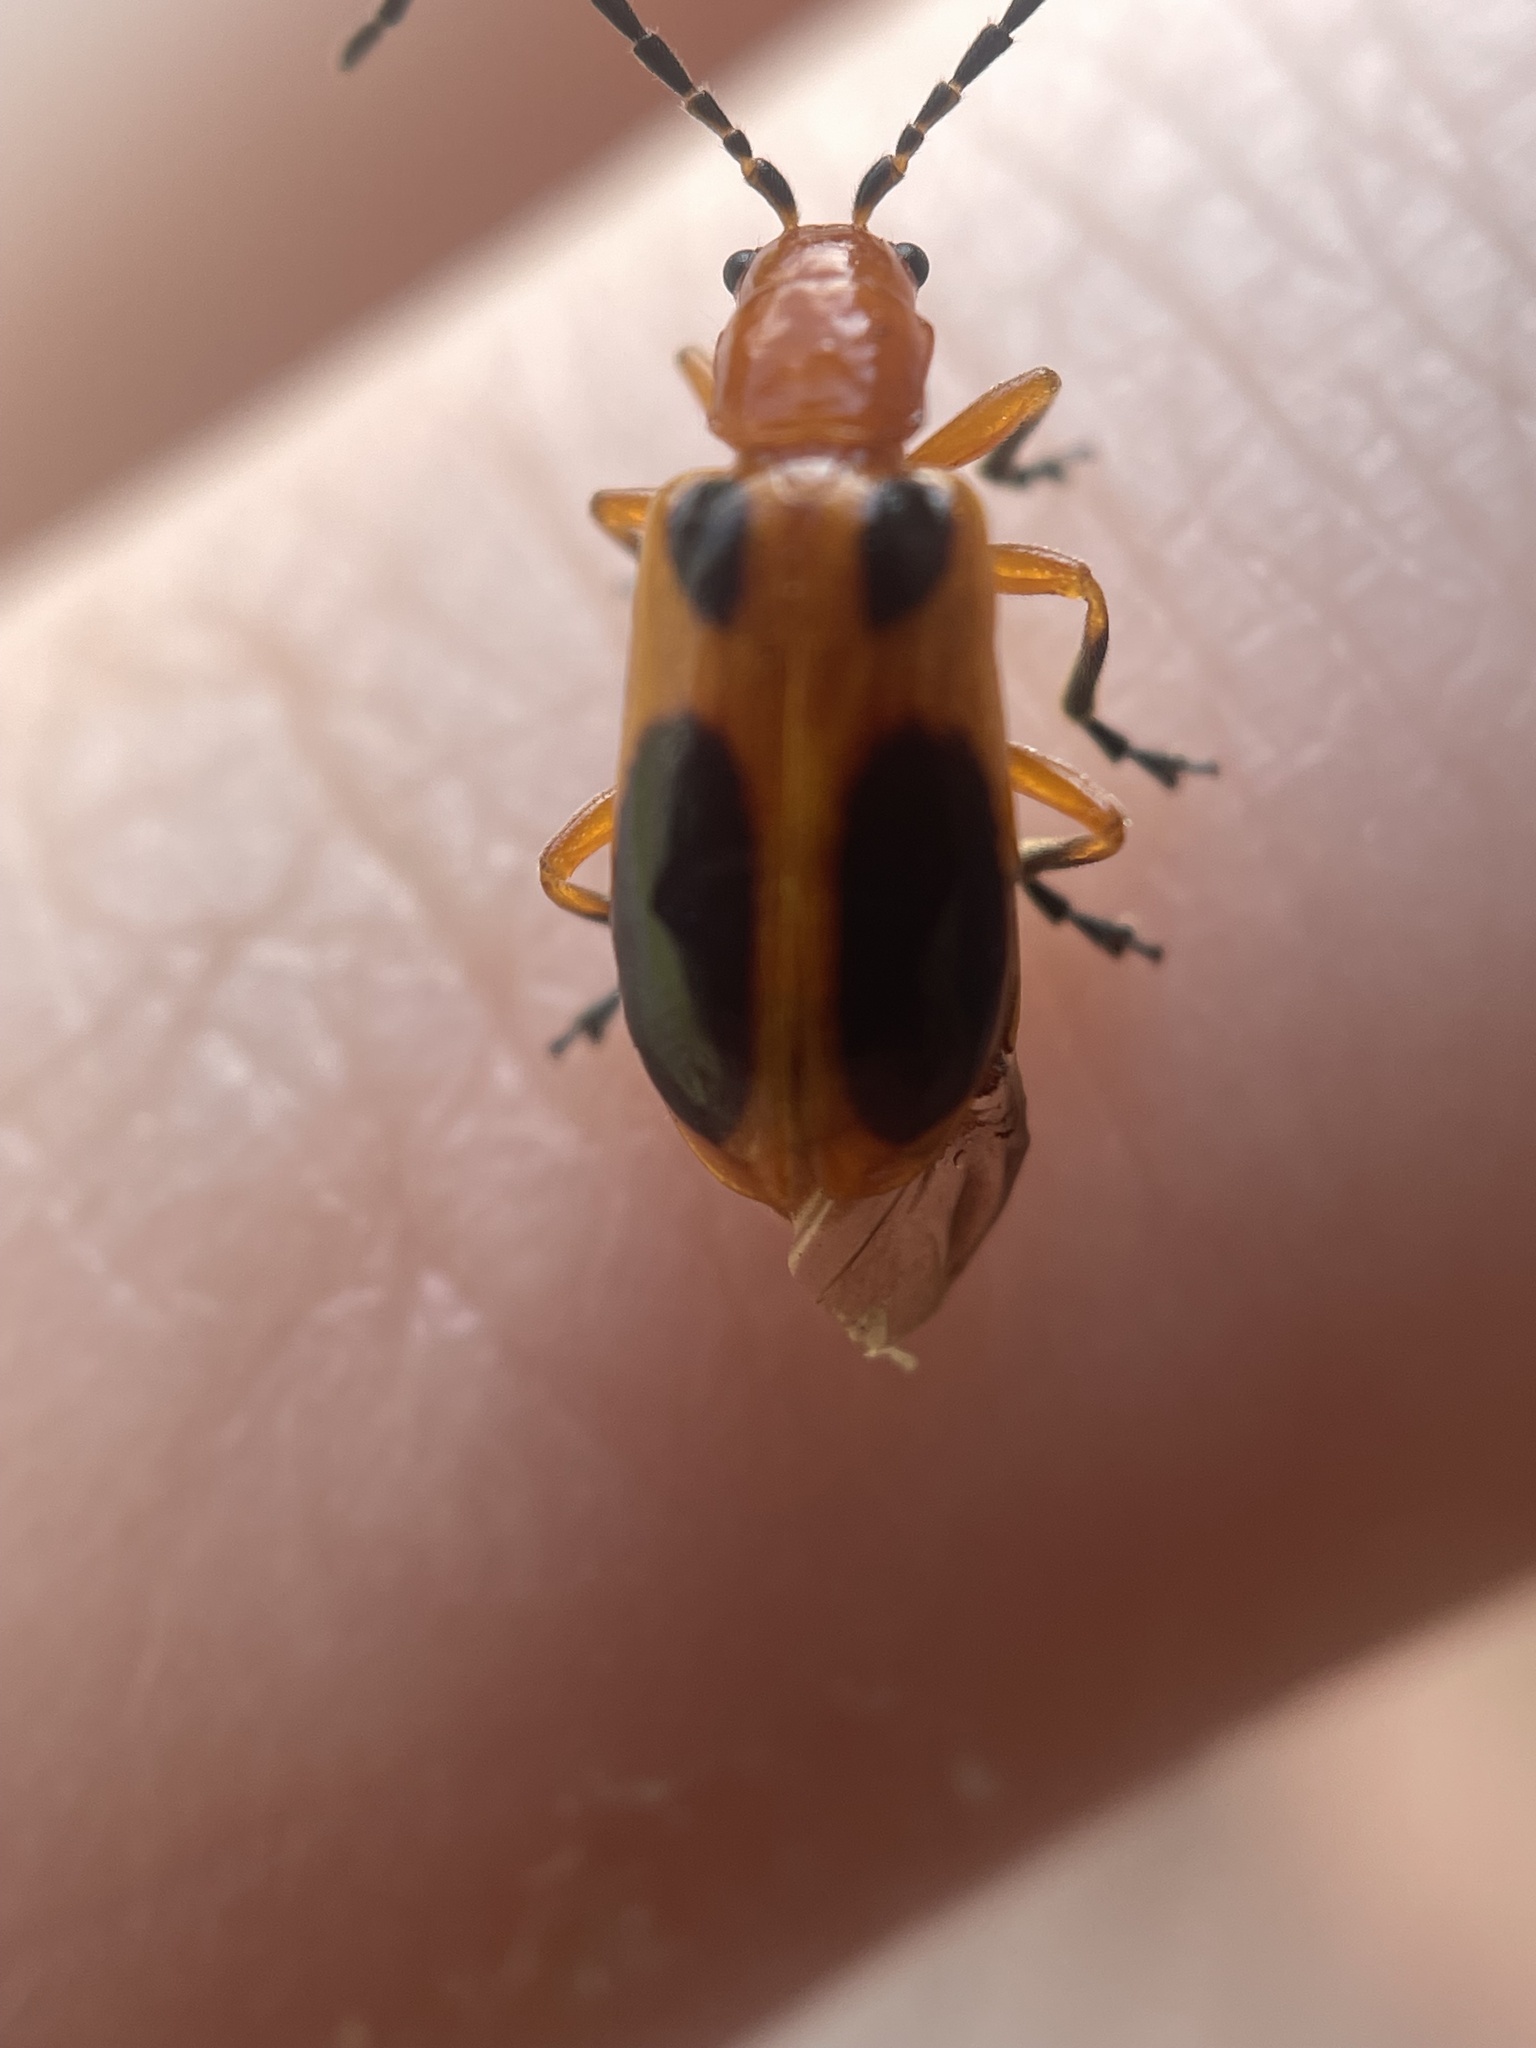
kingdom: Animalia
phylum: Arthropoda
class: Insecta
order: Coleoptera
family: Chrysomelidae
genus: Phyllobrotica
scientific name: Phyllobrotica sororia
